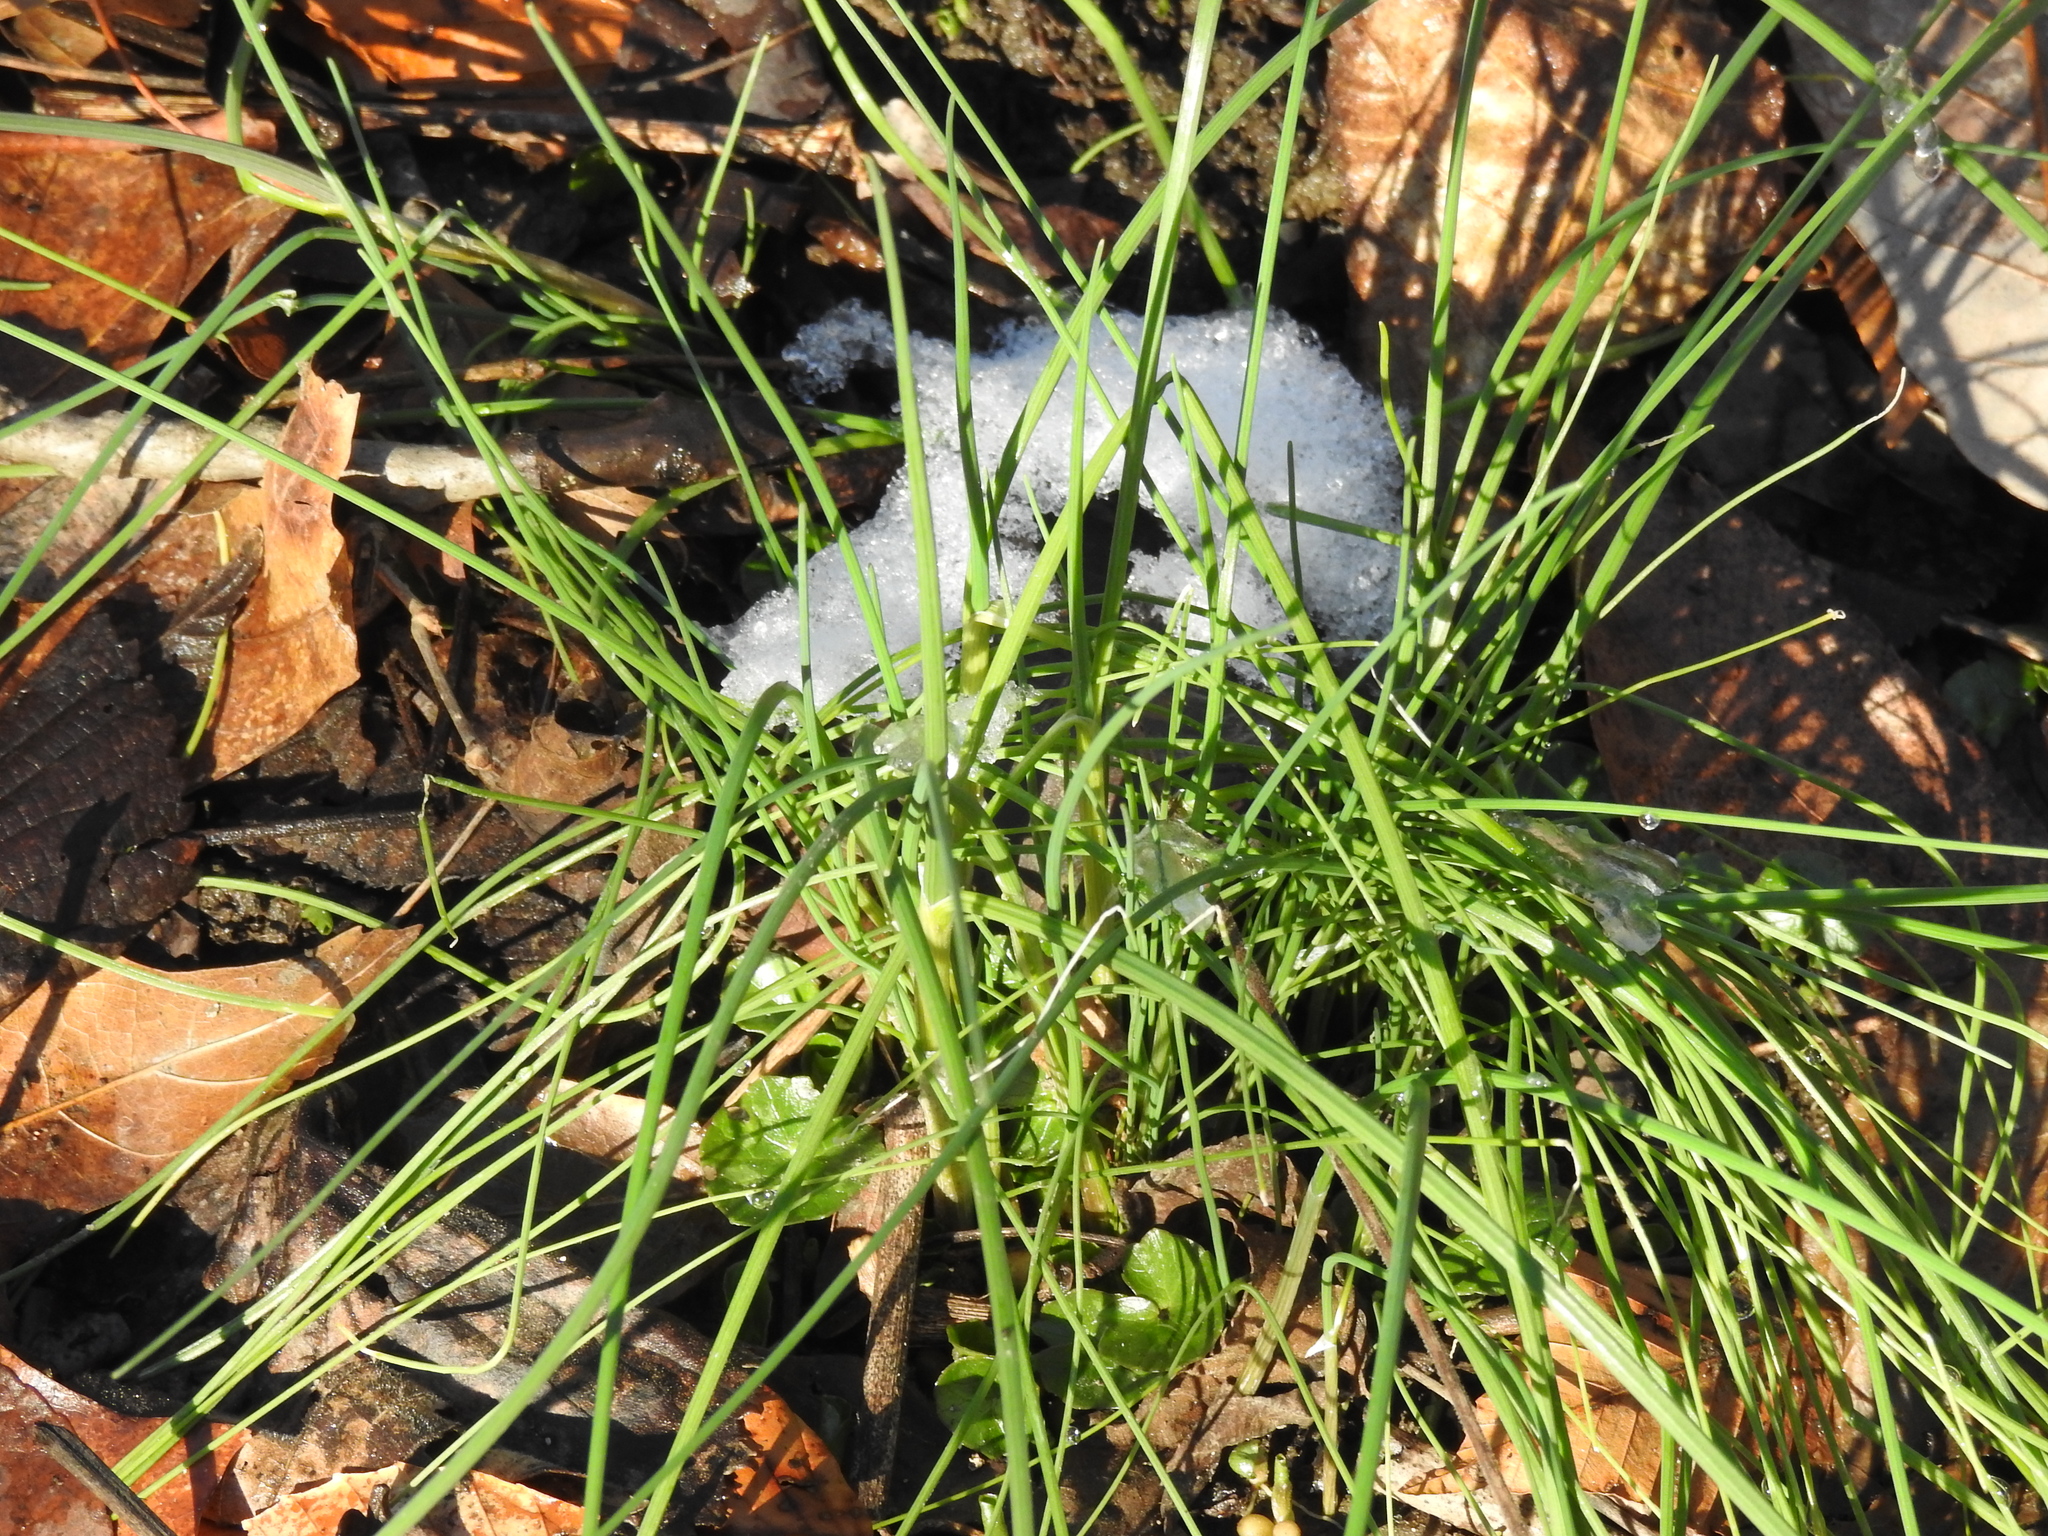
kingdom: Plantae
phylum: Tracheophyta
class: Liliopsida
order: Asparagales
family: Amaryllidaceae
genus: Allium
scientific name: Allium vineale
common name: Crow garlic
